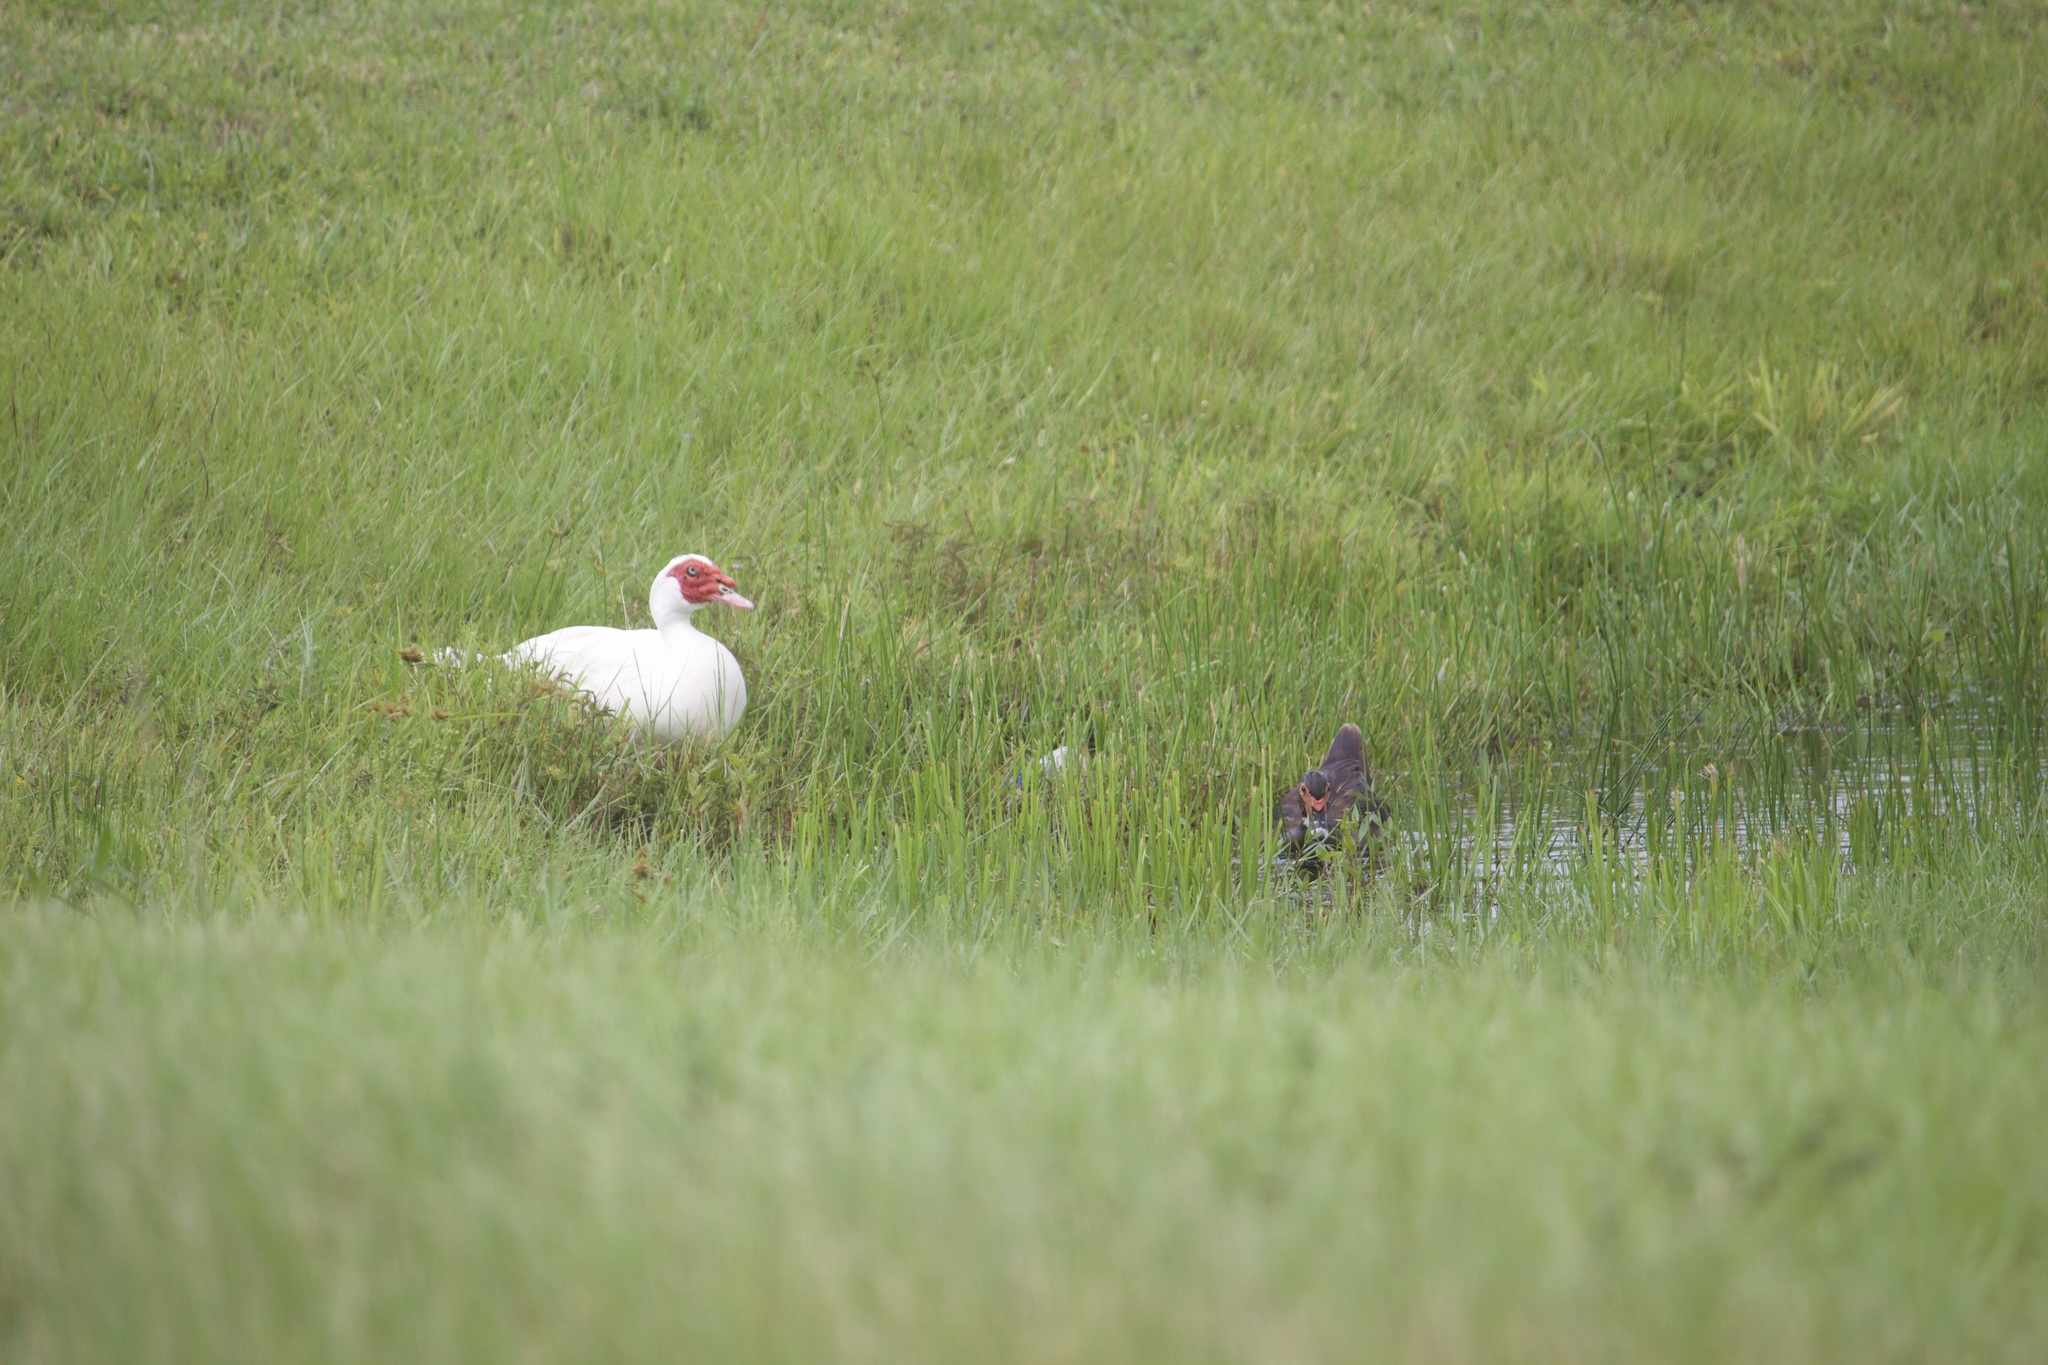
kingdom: Animalia
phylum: Chordata
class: Aves
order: Anseriformes
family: Anatidae
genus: Cairina
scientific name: Cairina moschata
